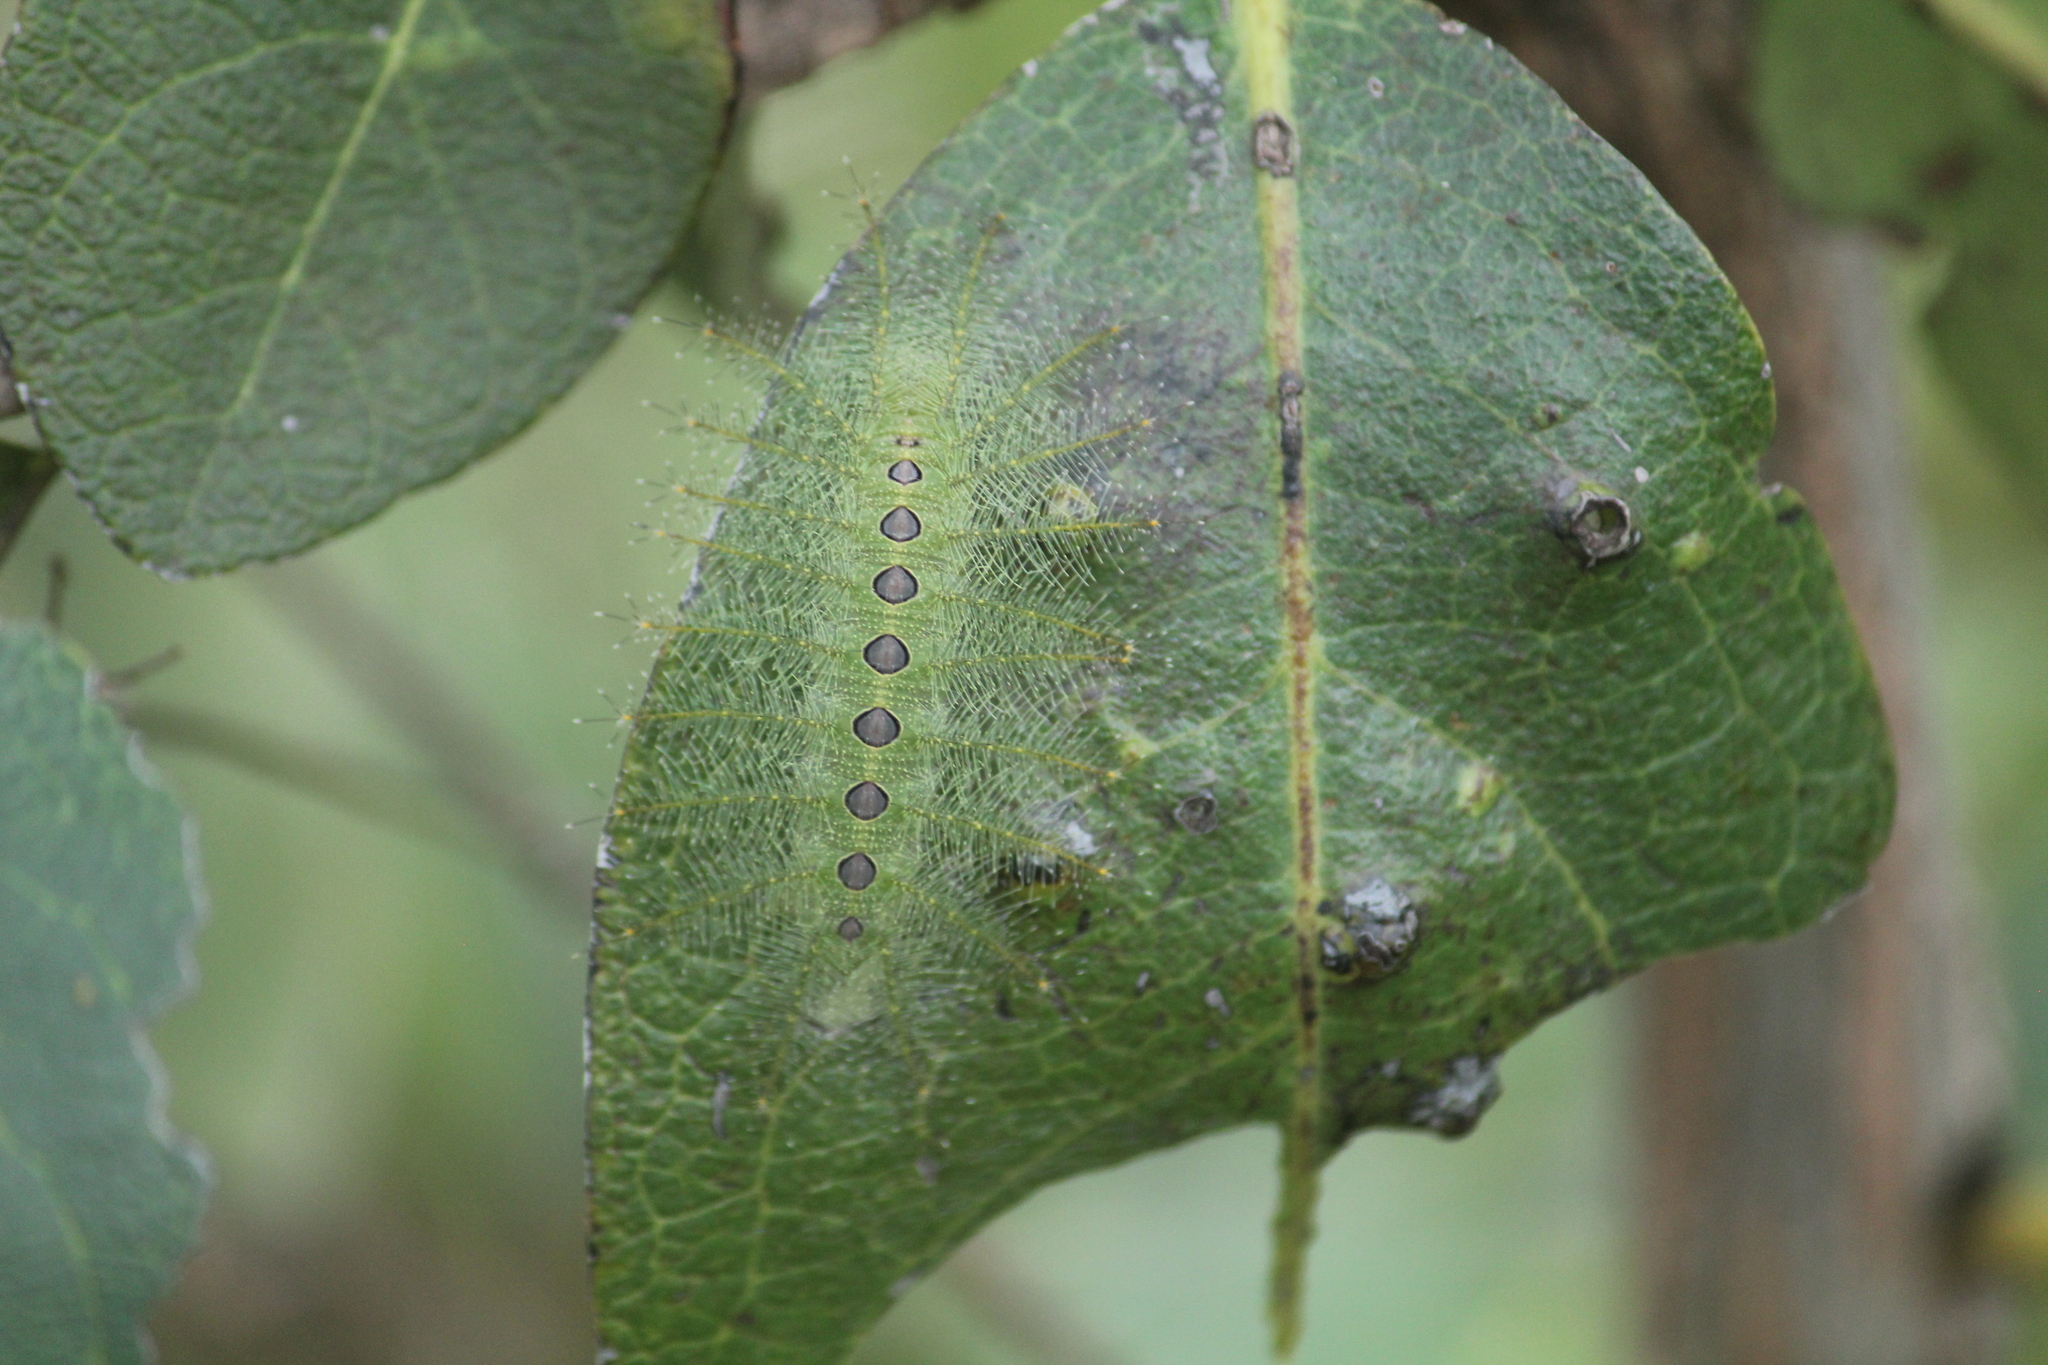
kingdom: Animalia
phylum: Arthropoda
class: Insecta
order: Lepidoptera
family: Nymphalidae
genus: Euthalia
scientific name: Euthalia nais
